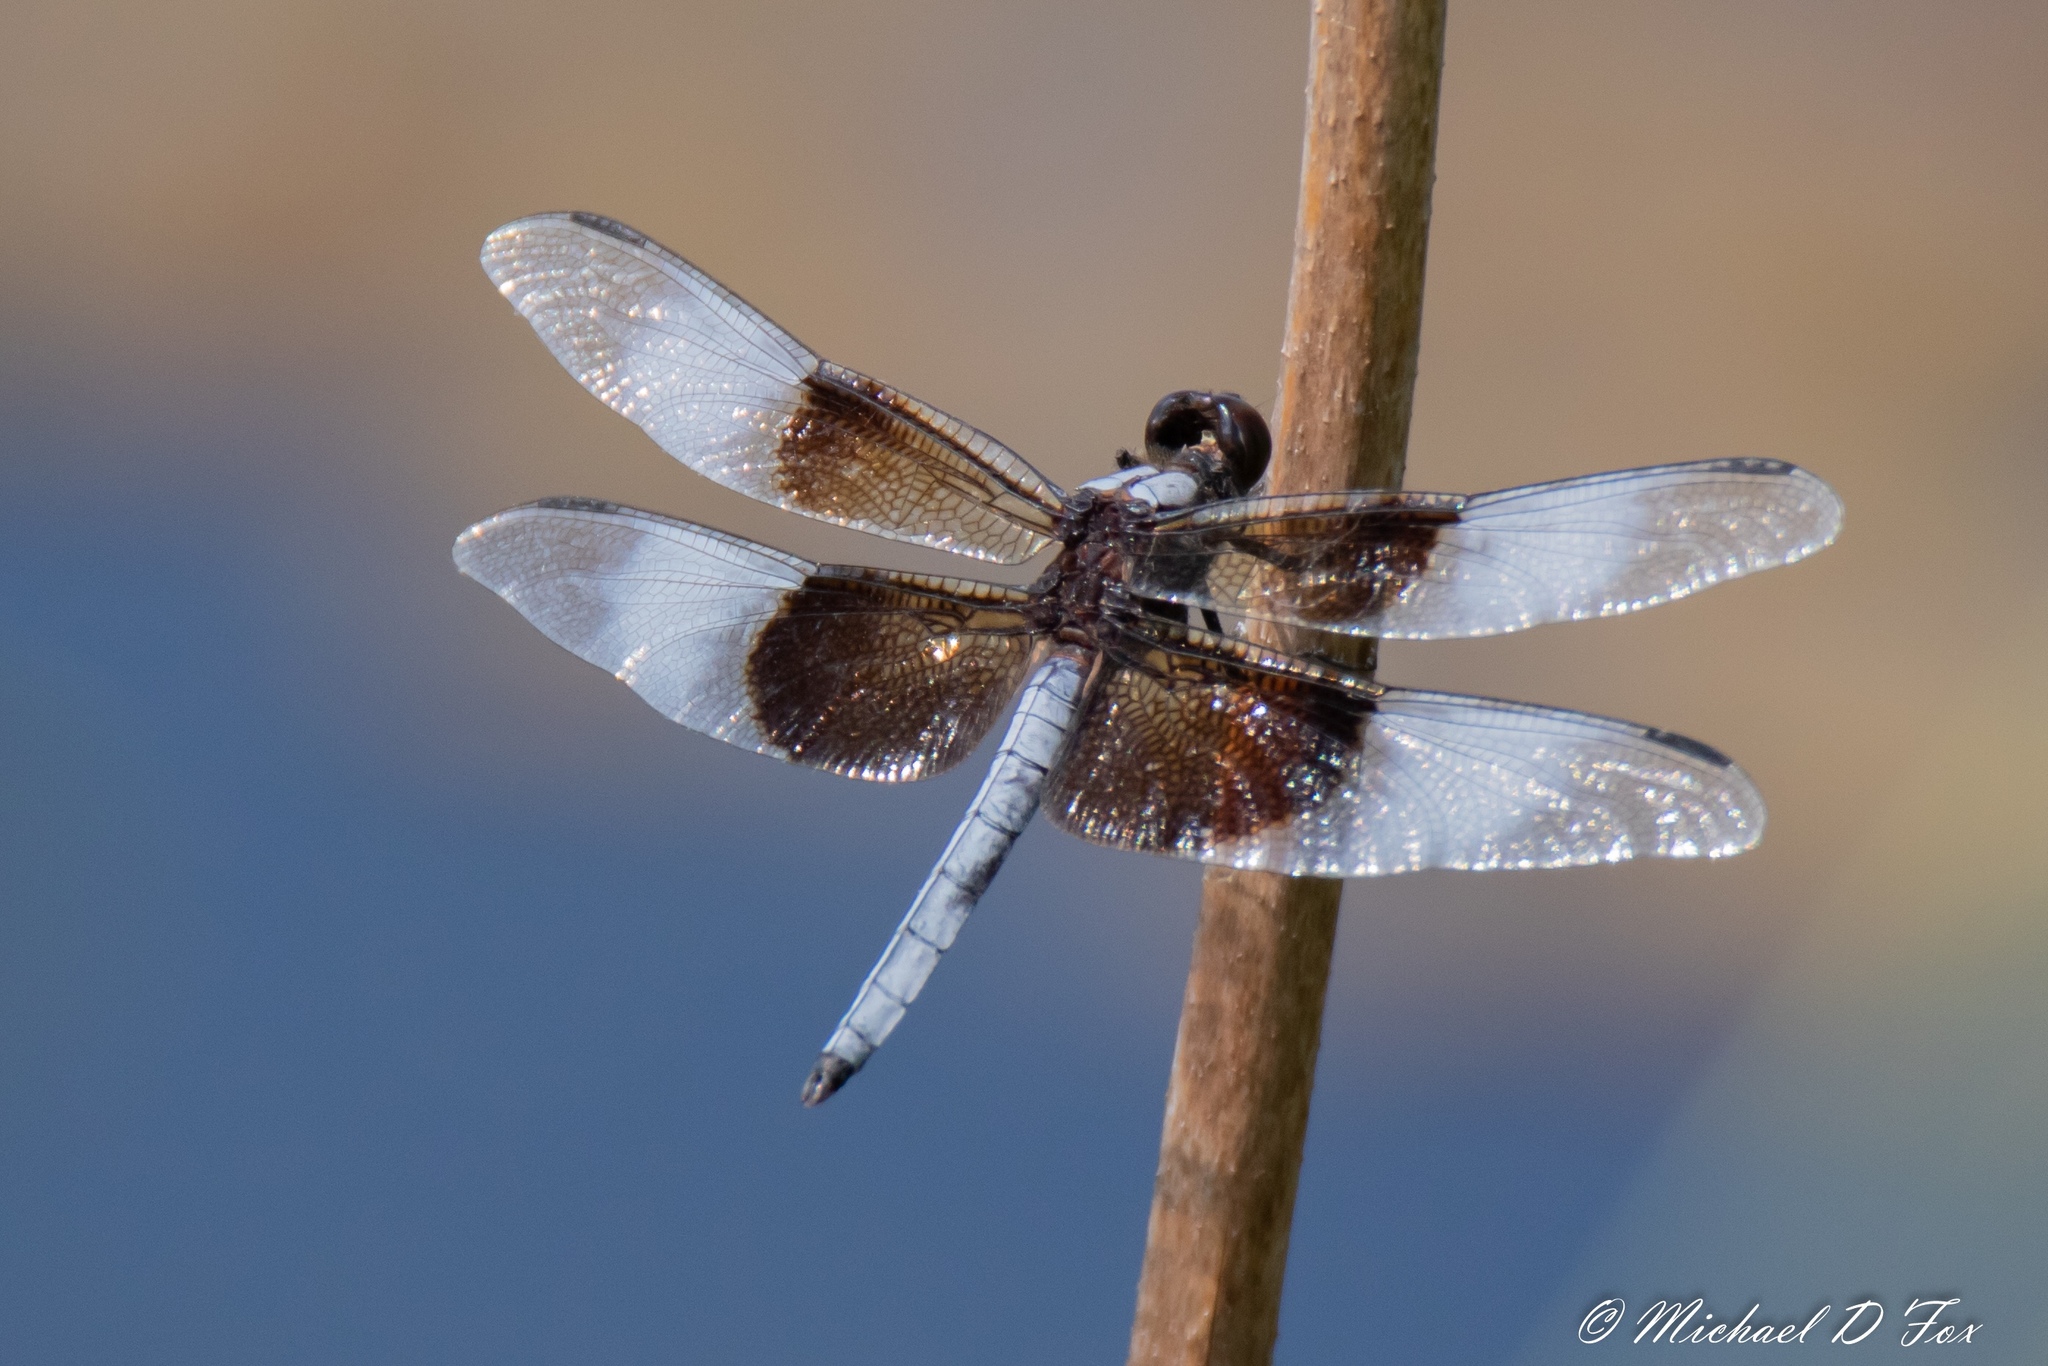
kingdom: Animalia
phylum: Arthropoda
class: Insecta
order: Odonata
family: Libellulidae
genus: Libellula
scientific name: Libellula luctuosa
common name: Widow skimmer
